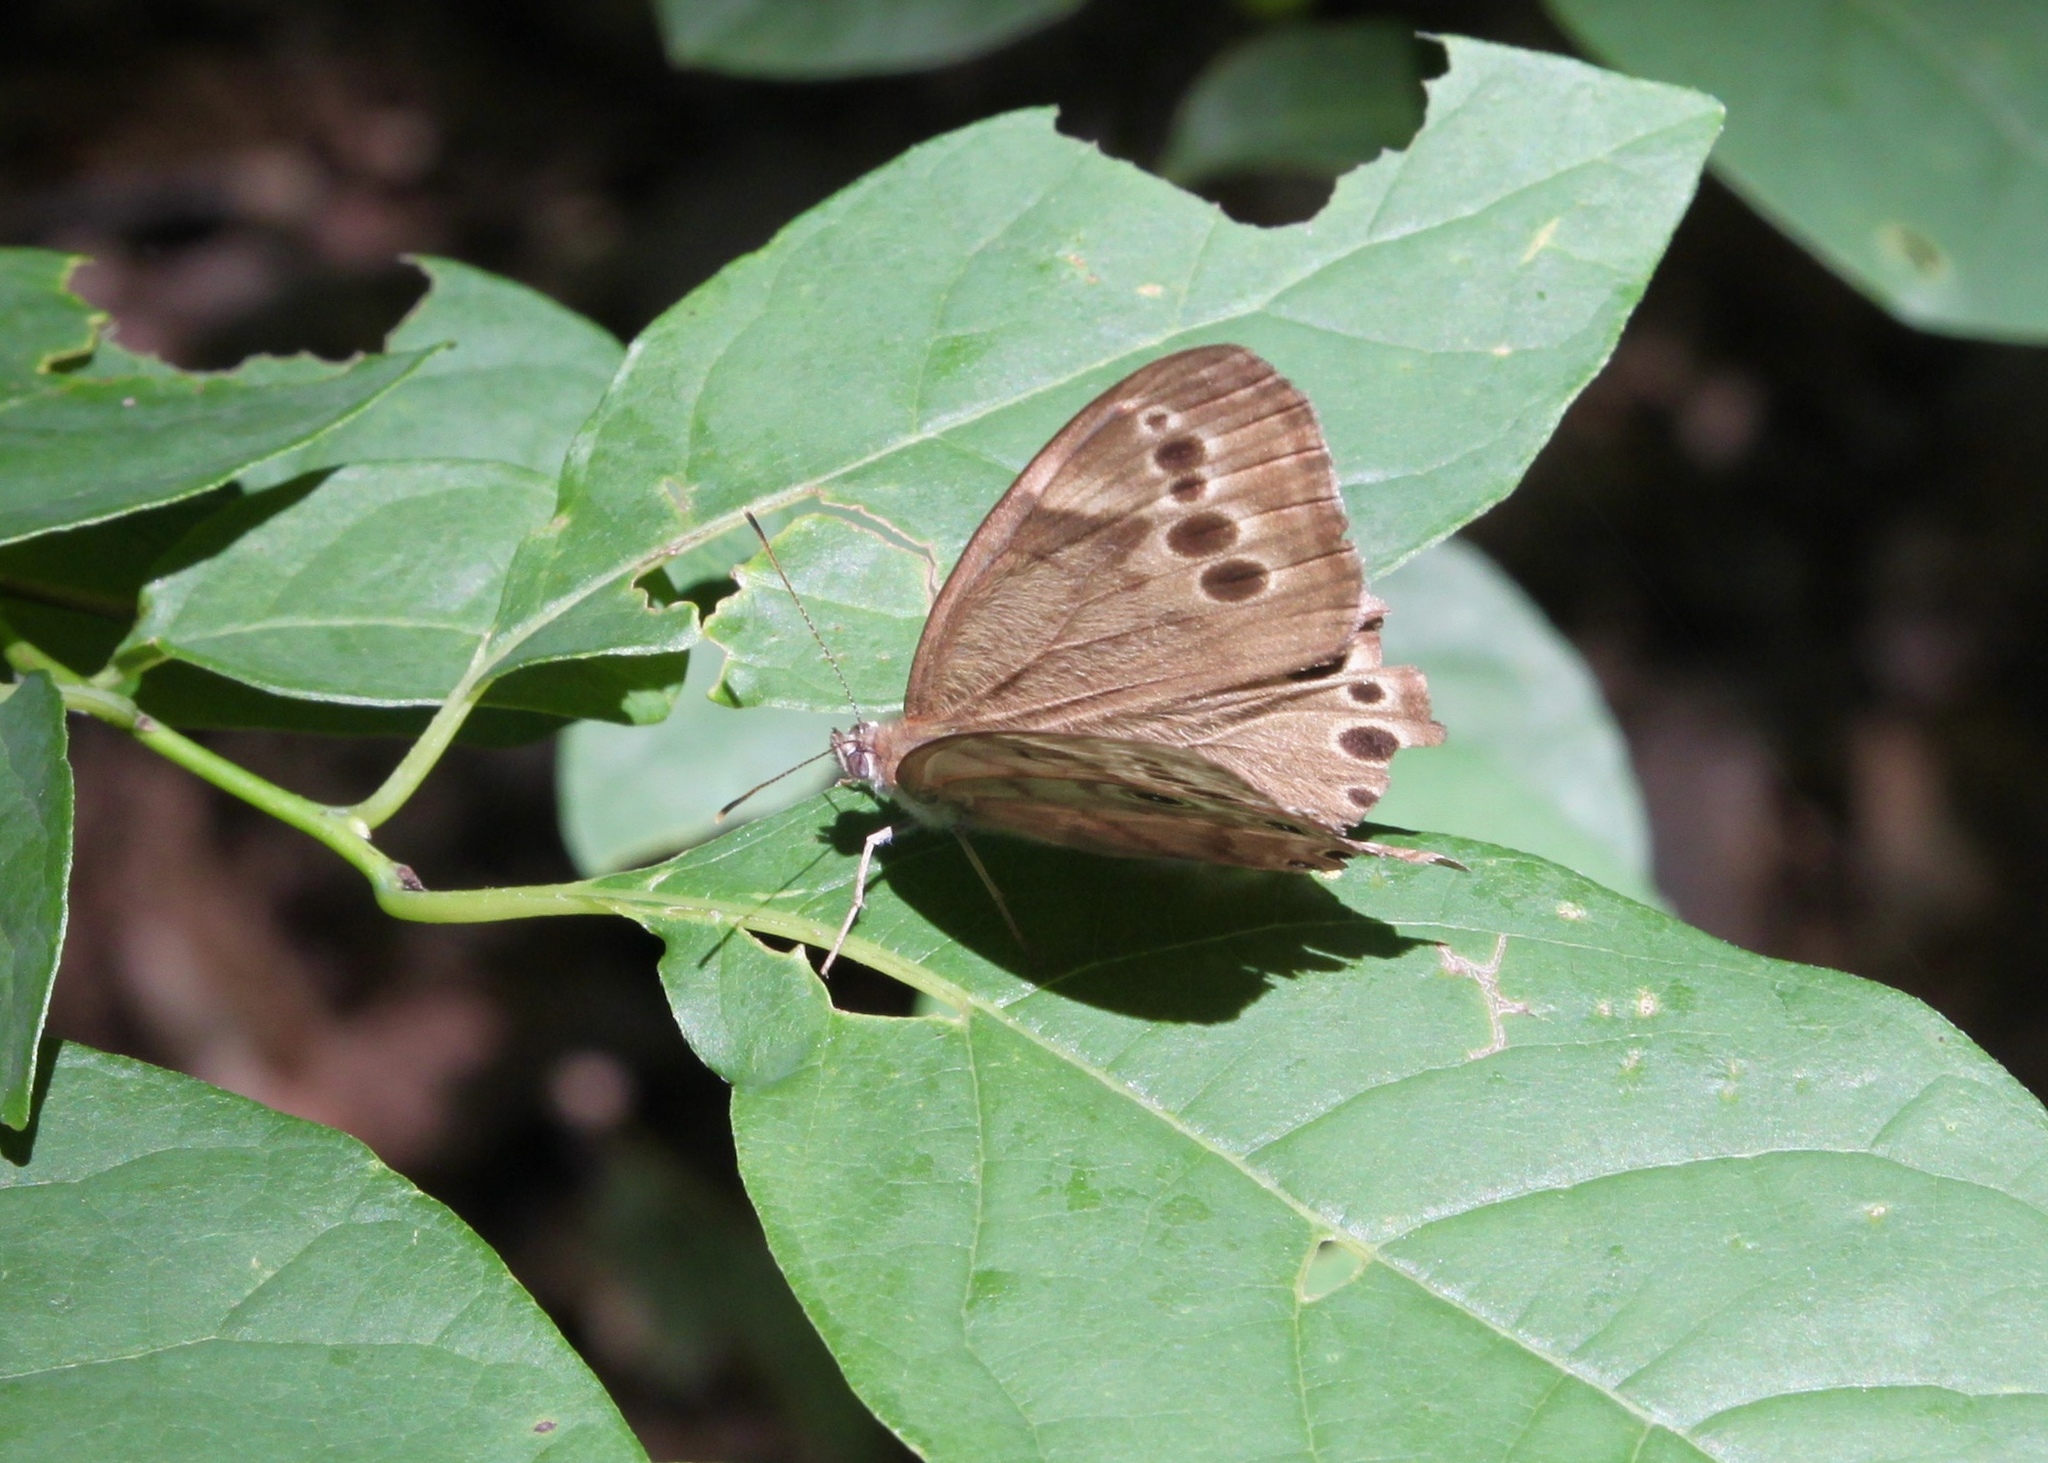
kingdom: Animalia
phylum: Arthropoda
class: Insecta
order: Lepidoptera
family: Nymphalidae
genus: Lethe
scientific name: Lethe anthedon
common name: Northern pearly-eye
